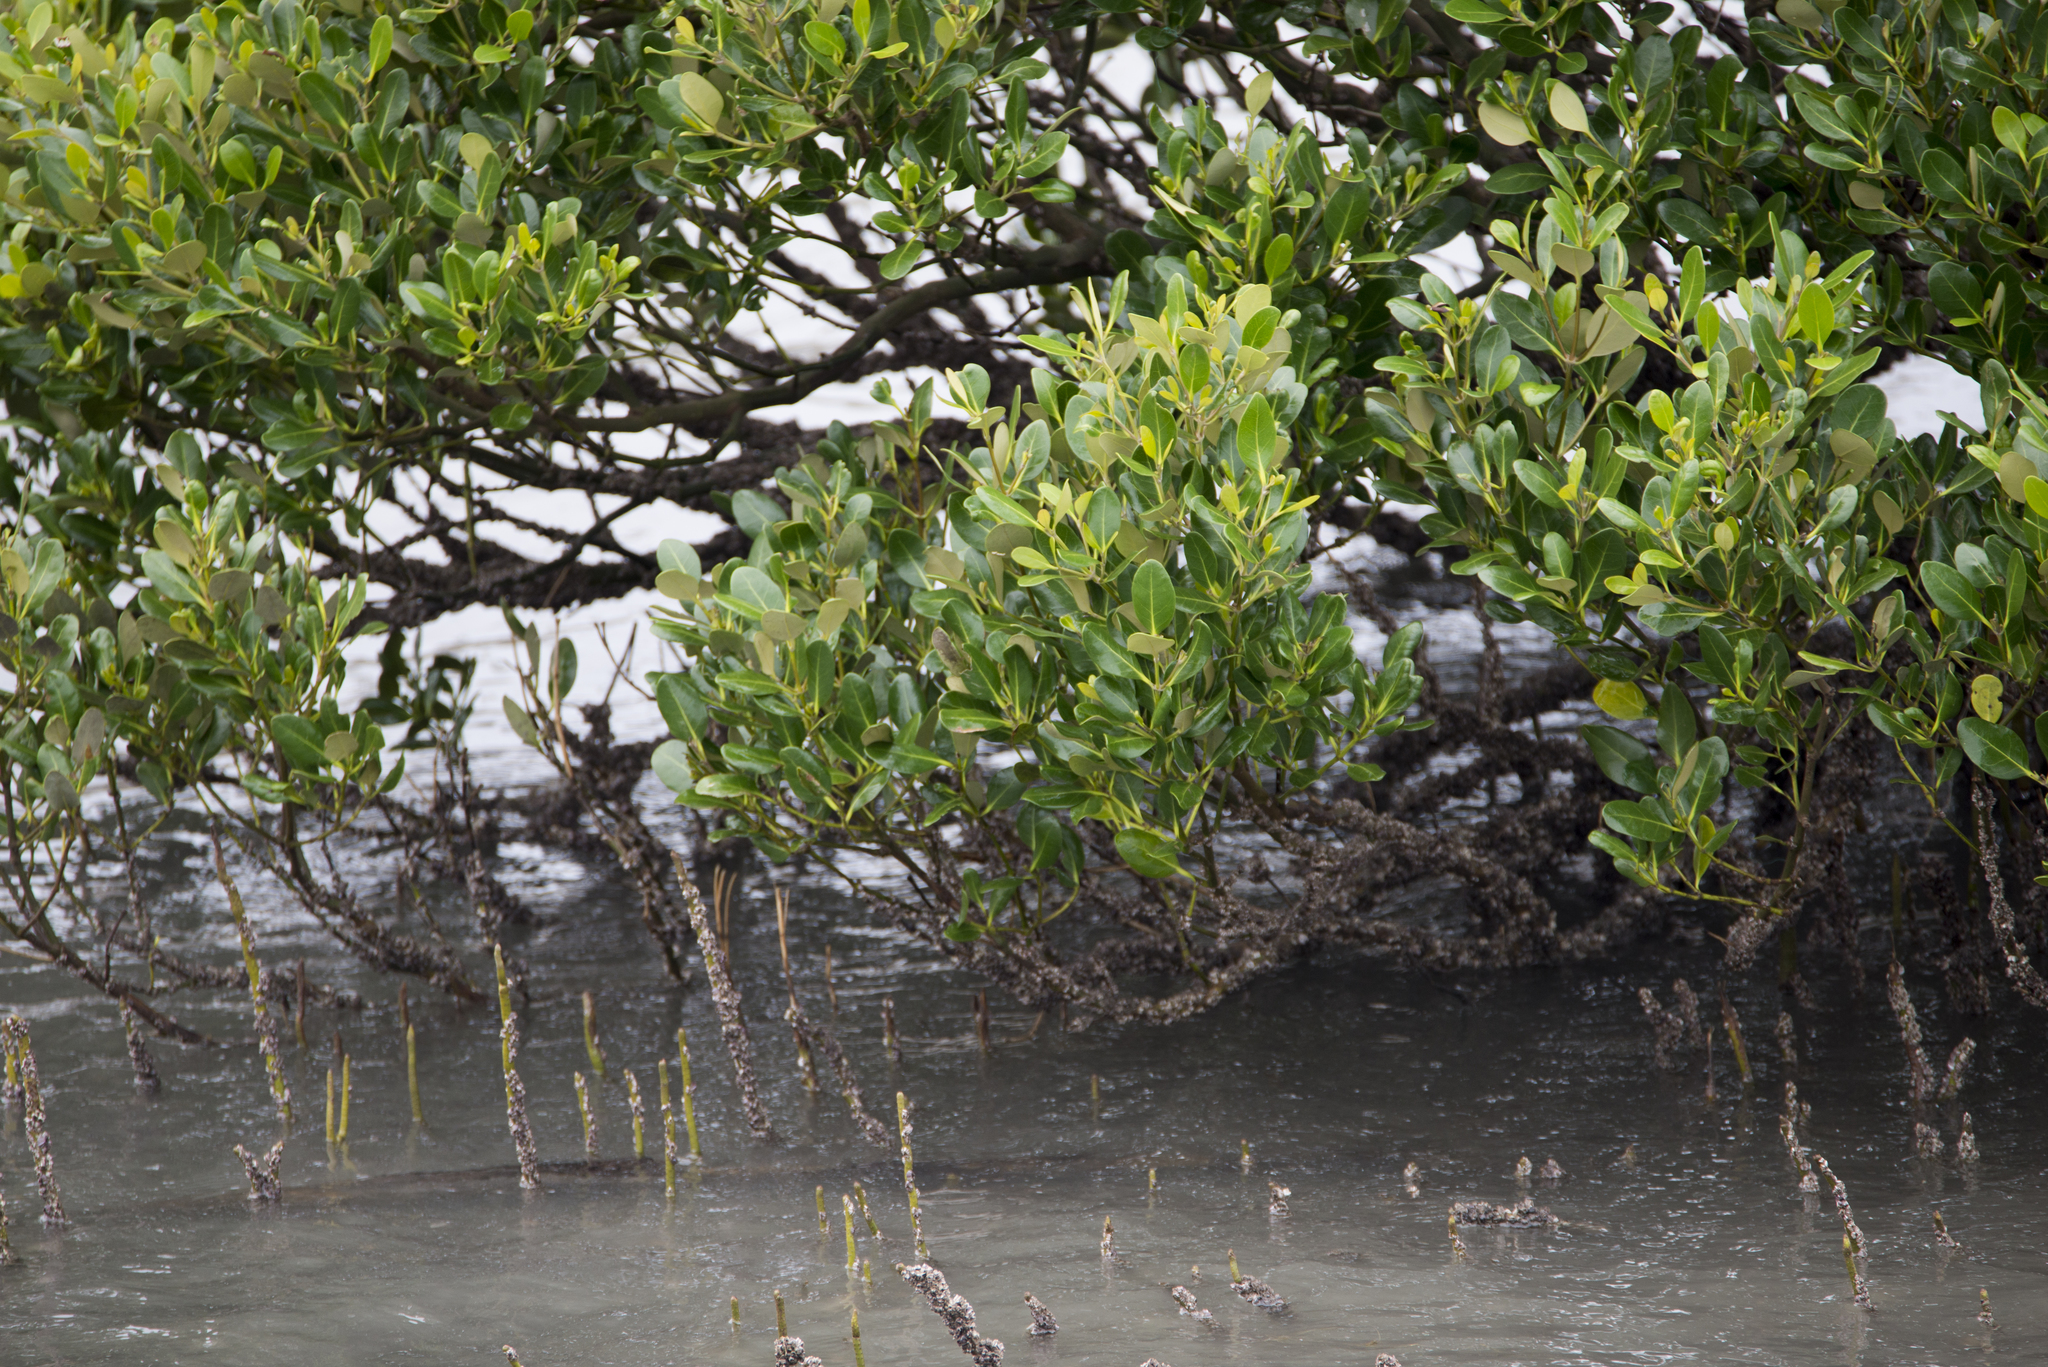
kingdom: Plantae
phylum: Tracheophyta
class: Magnoliopsida
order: Lamiales
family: Acanthaceae
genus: Avicennia
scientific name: Avicennia marina
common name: Gray mangrove
